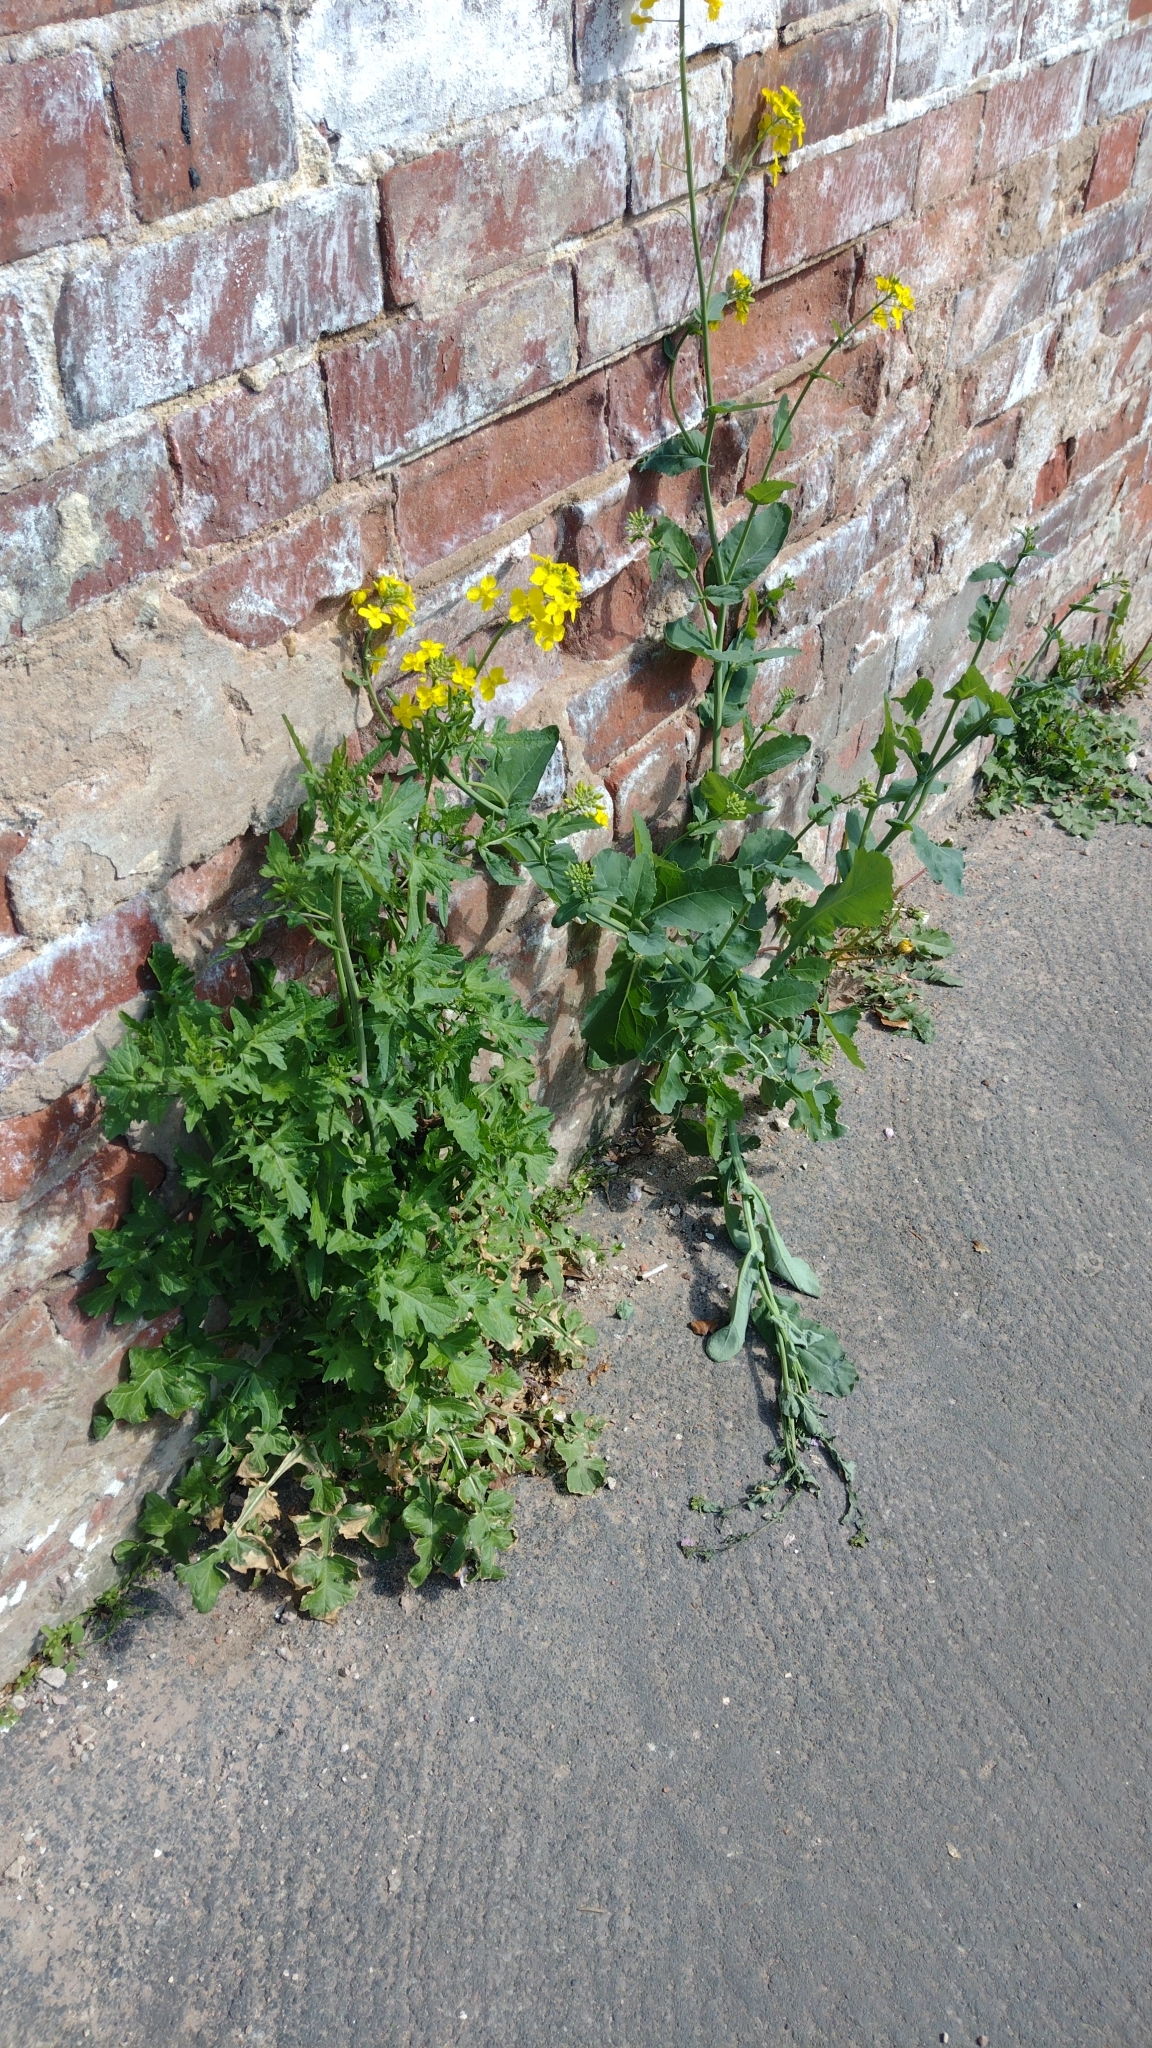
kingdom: Plantae
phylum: Tracheophyta
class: Magnoliopsida
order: Brassicales
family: Brassicaceae
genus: Brassica
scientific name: Brassica napus
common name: Rape
